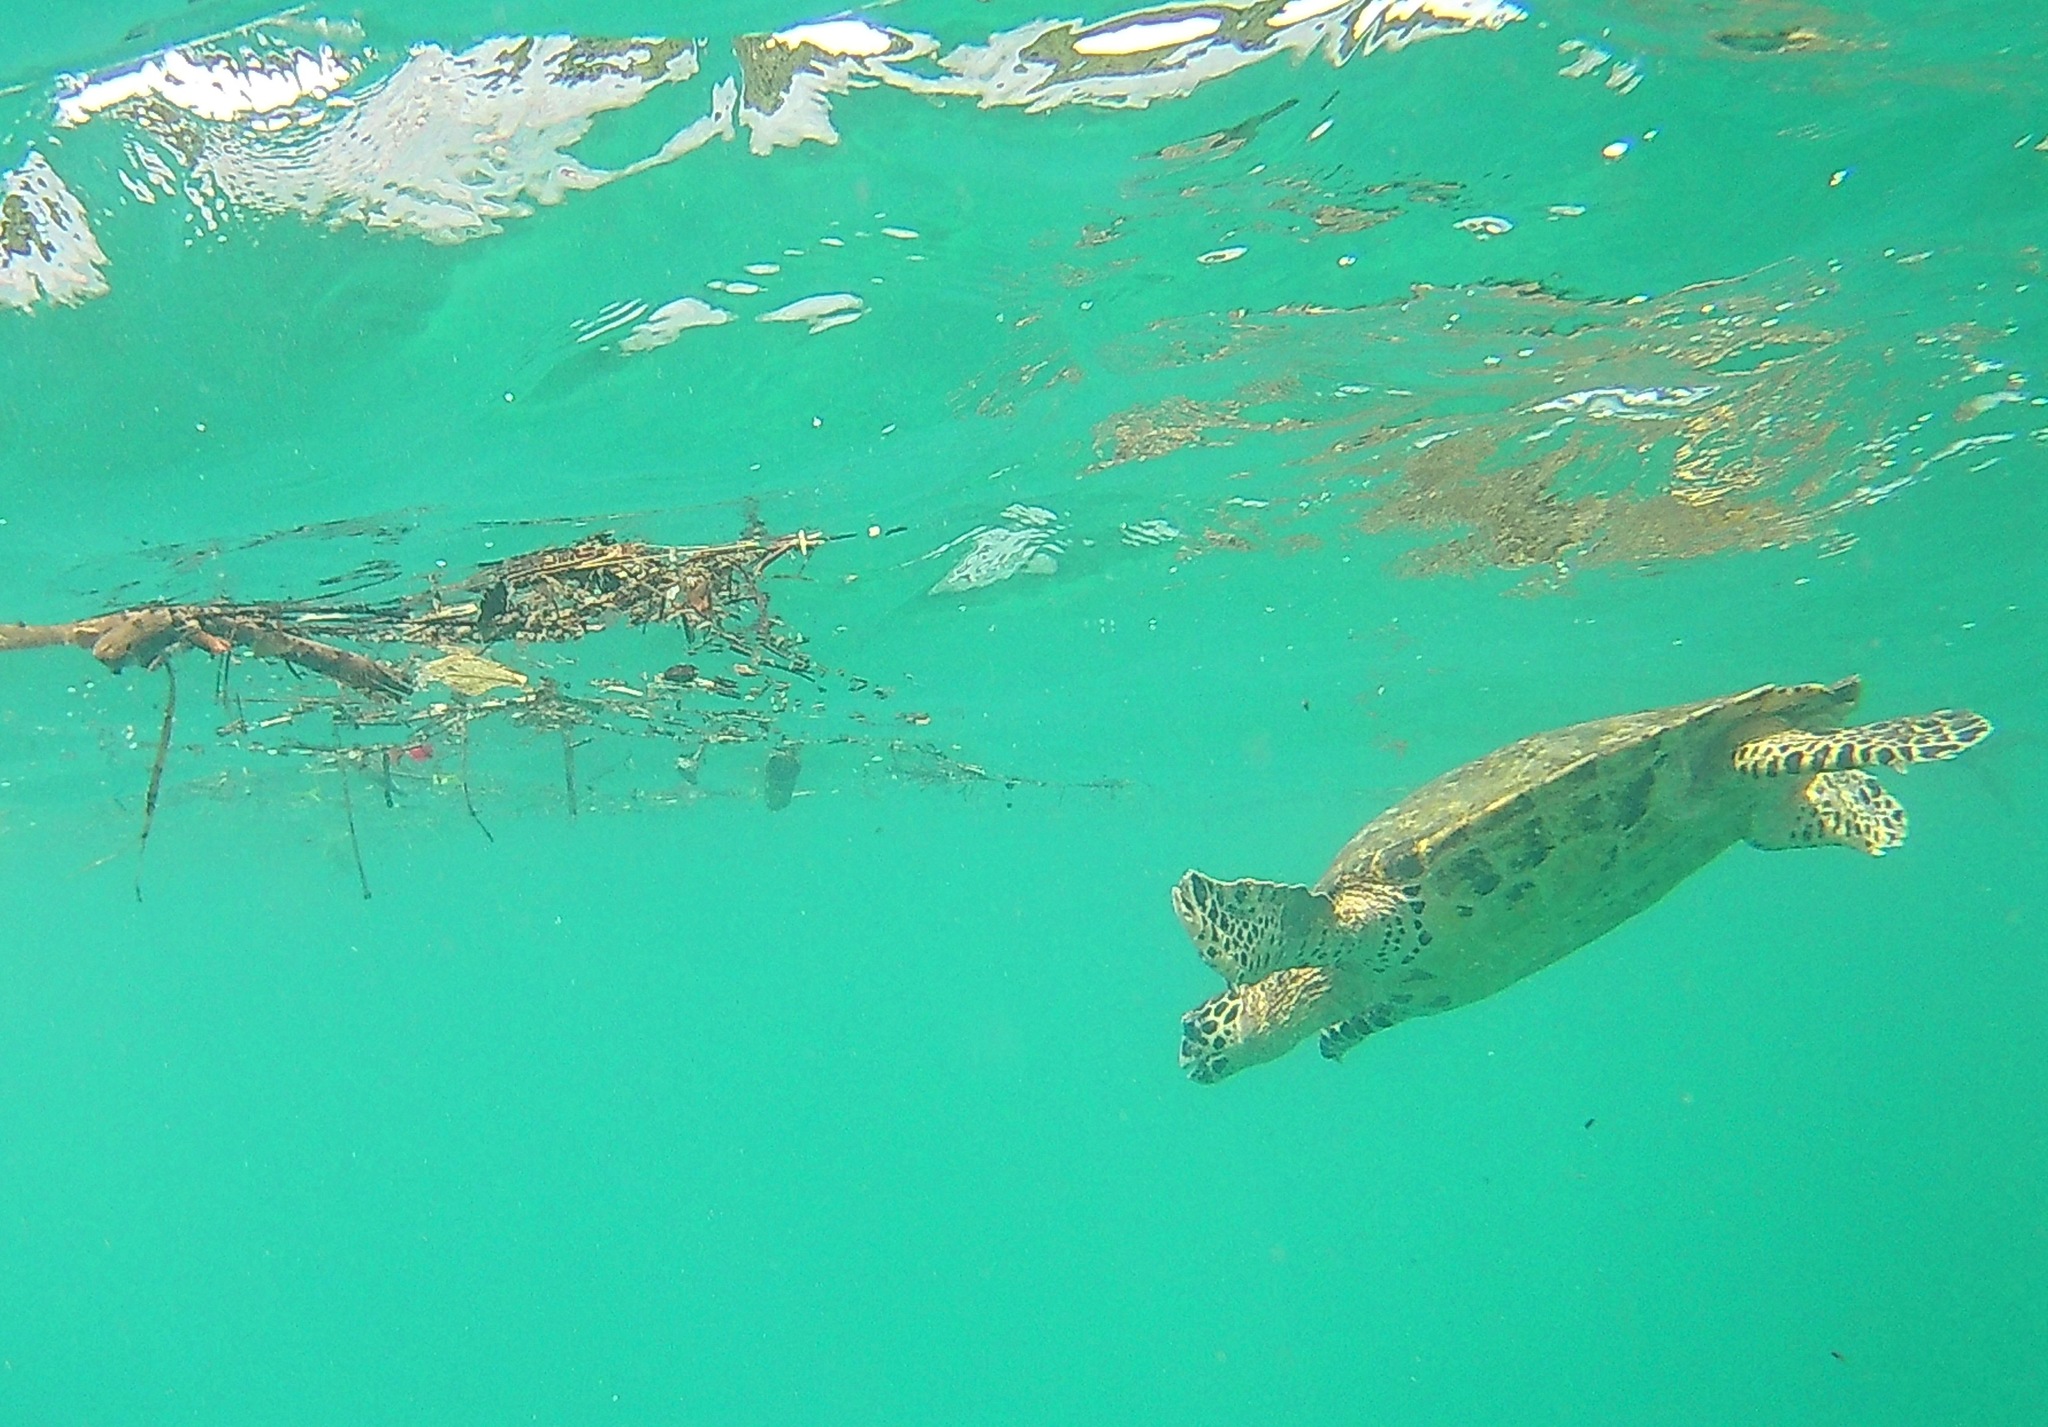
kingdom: Animalia
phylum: Chordata
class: Testudines
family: Cheloniidae
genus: Eretmochelys
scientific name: Eretmochelys imbricata
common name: Hawksbill turtle
